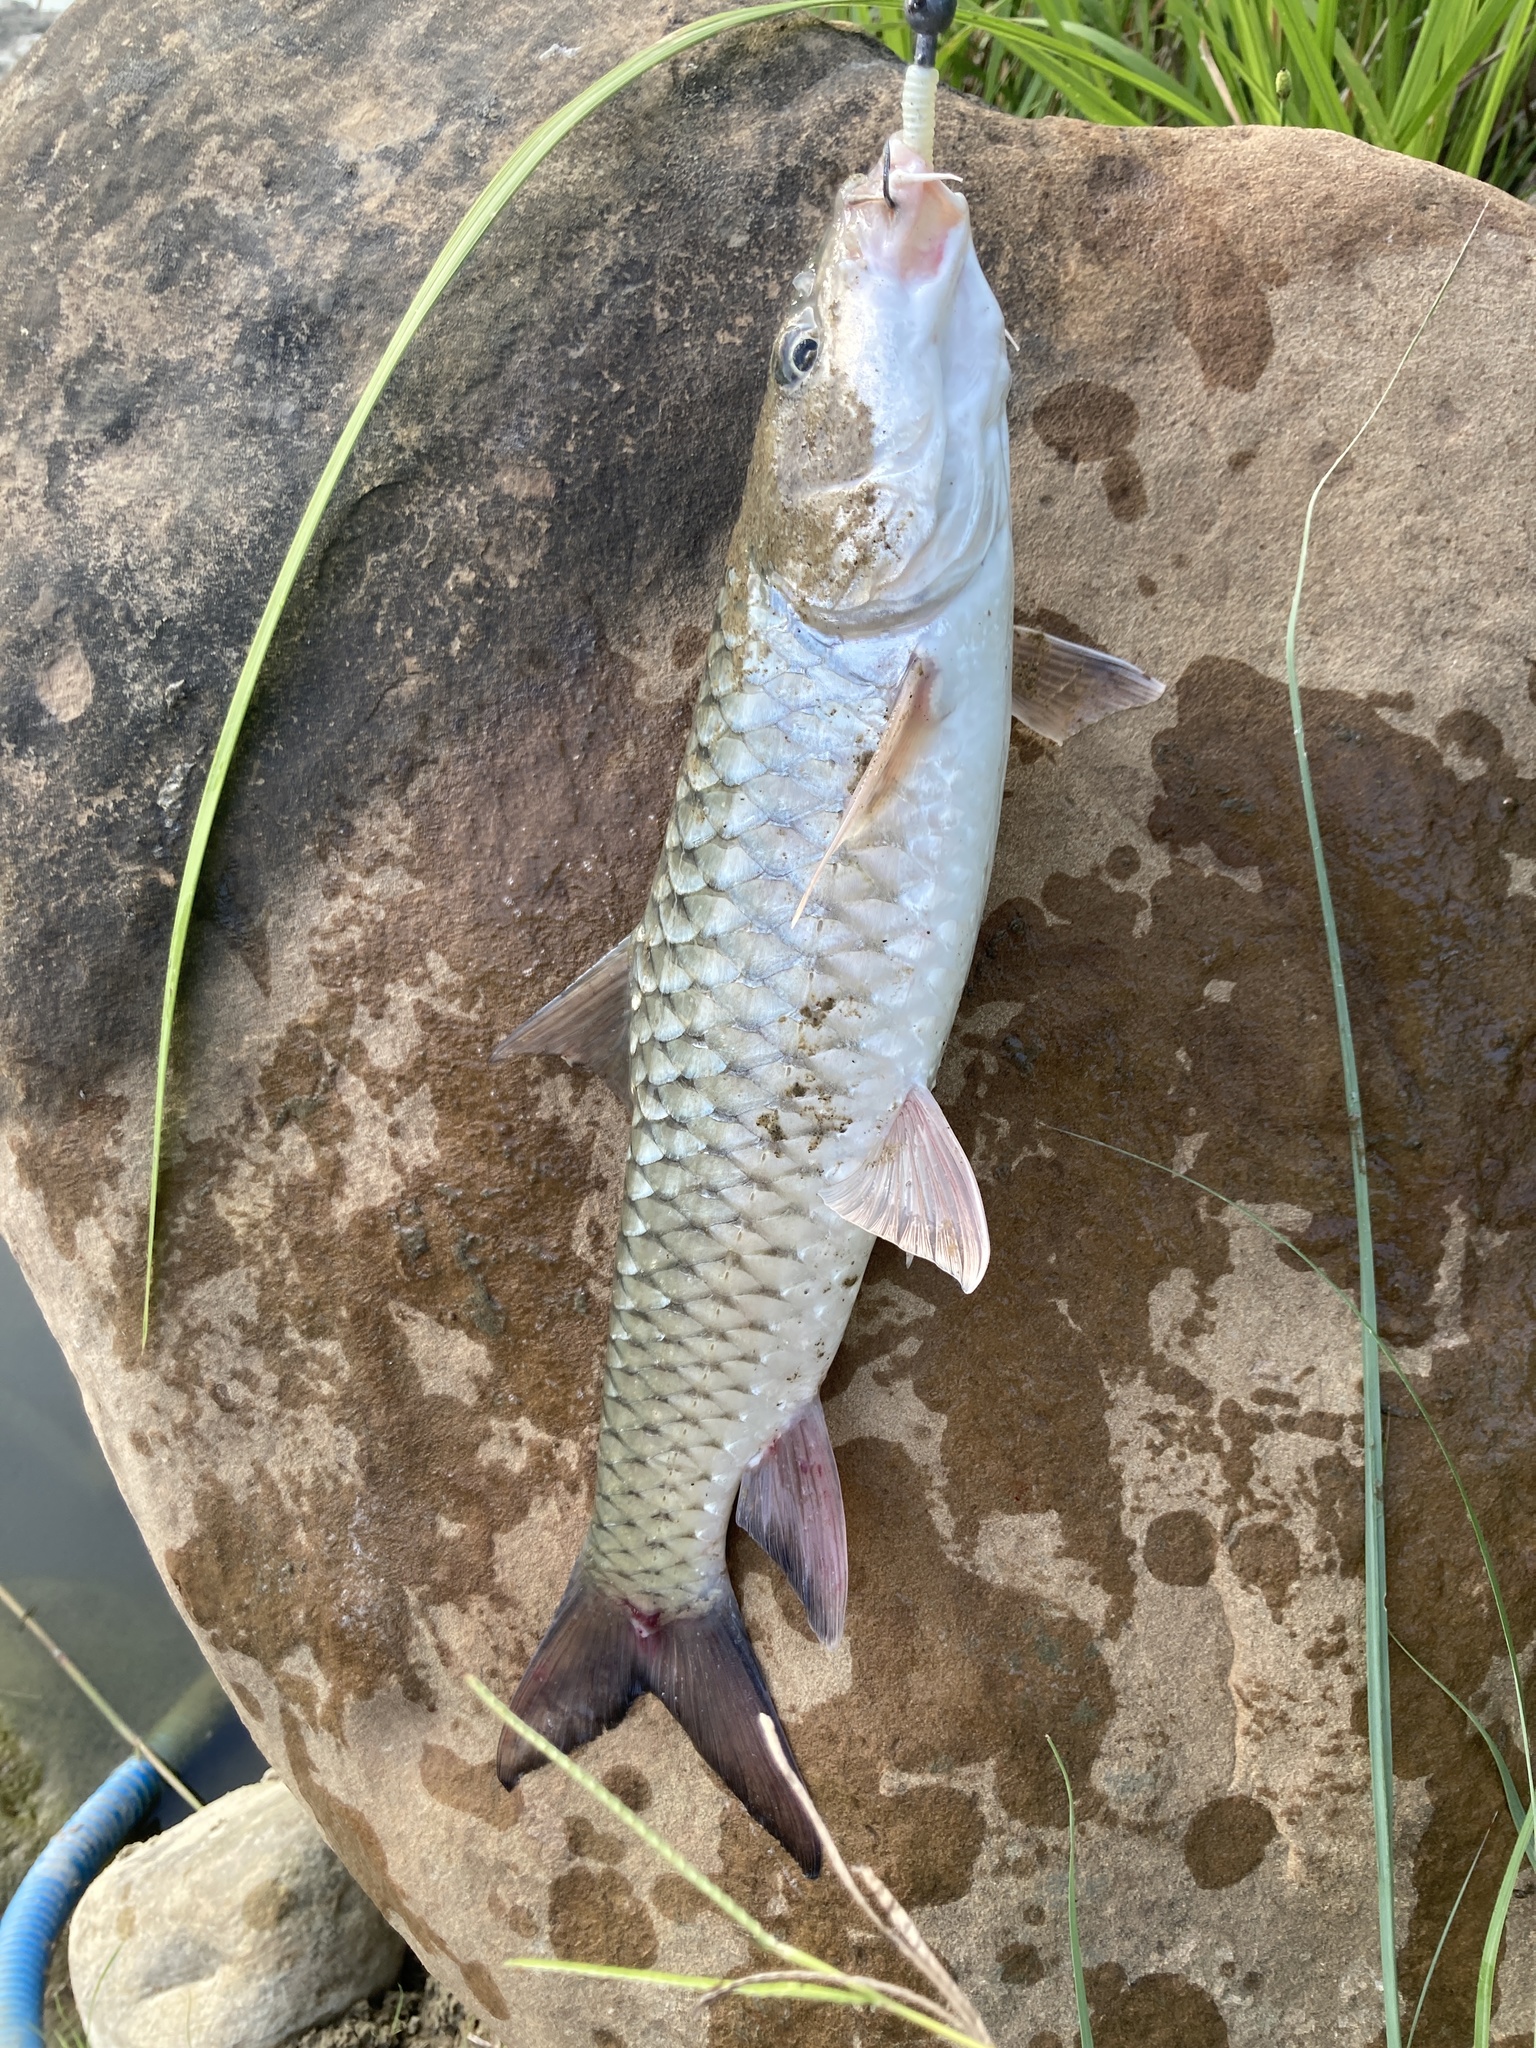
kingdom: Animalia
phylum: Chordata
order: Cypriniformes
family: Cyprinidae
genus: Spinibarbus
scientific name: Spinibarbus hollandi
